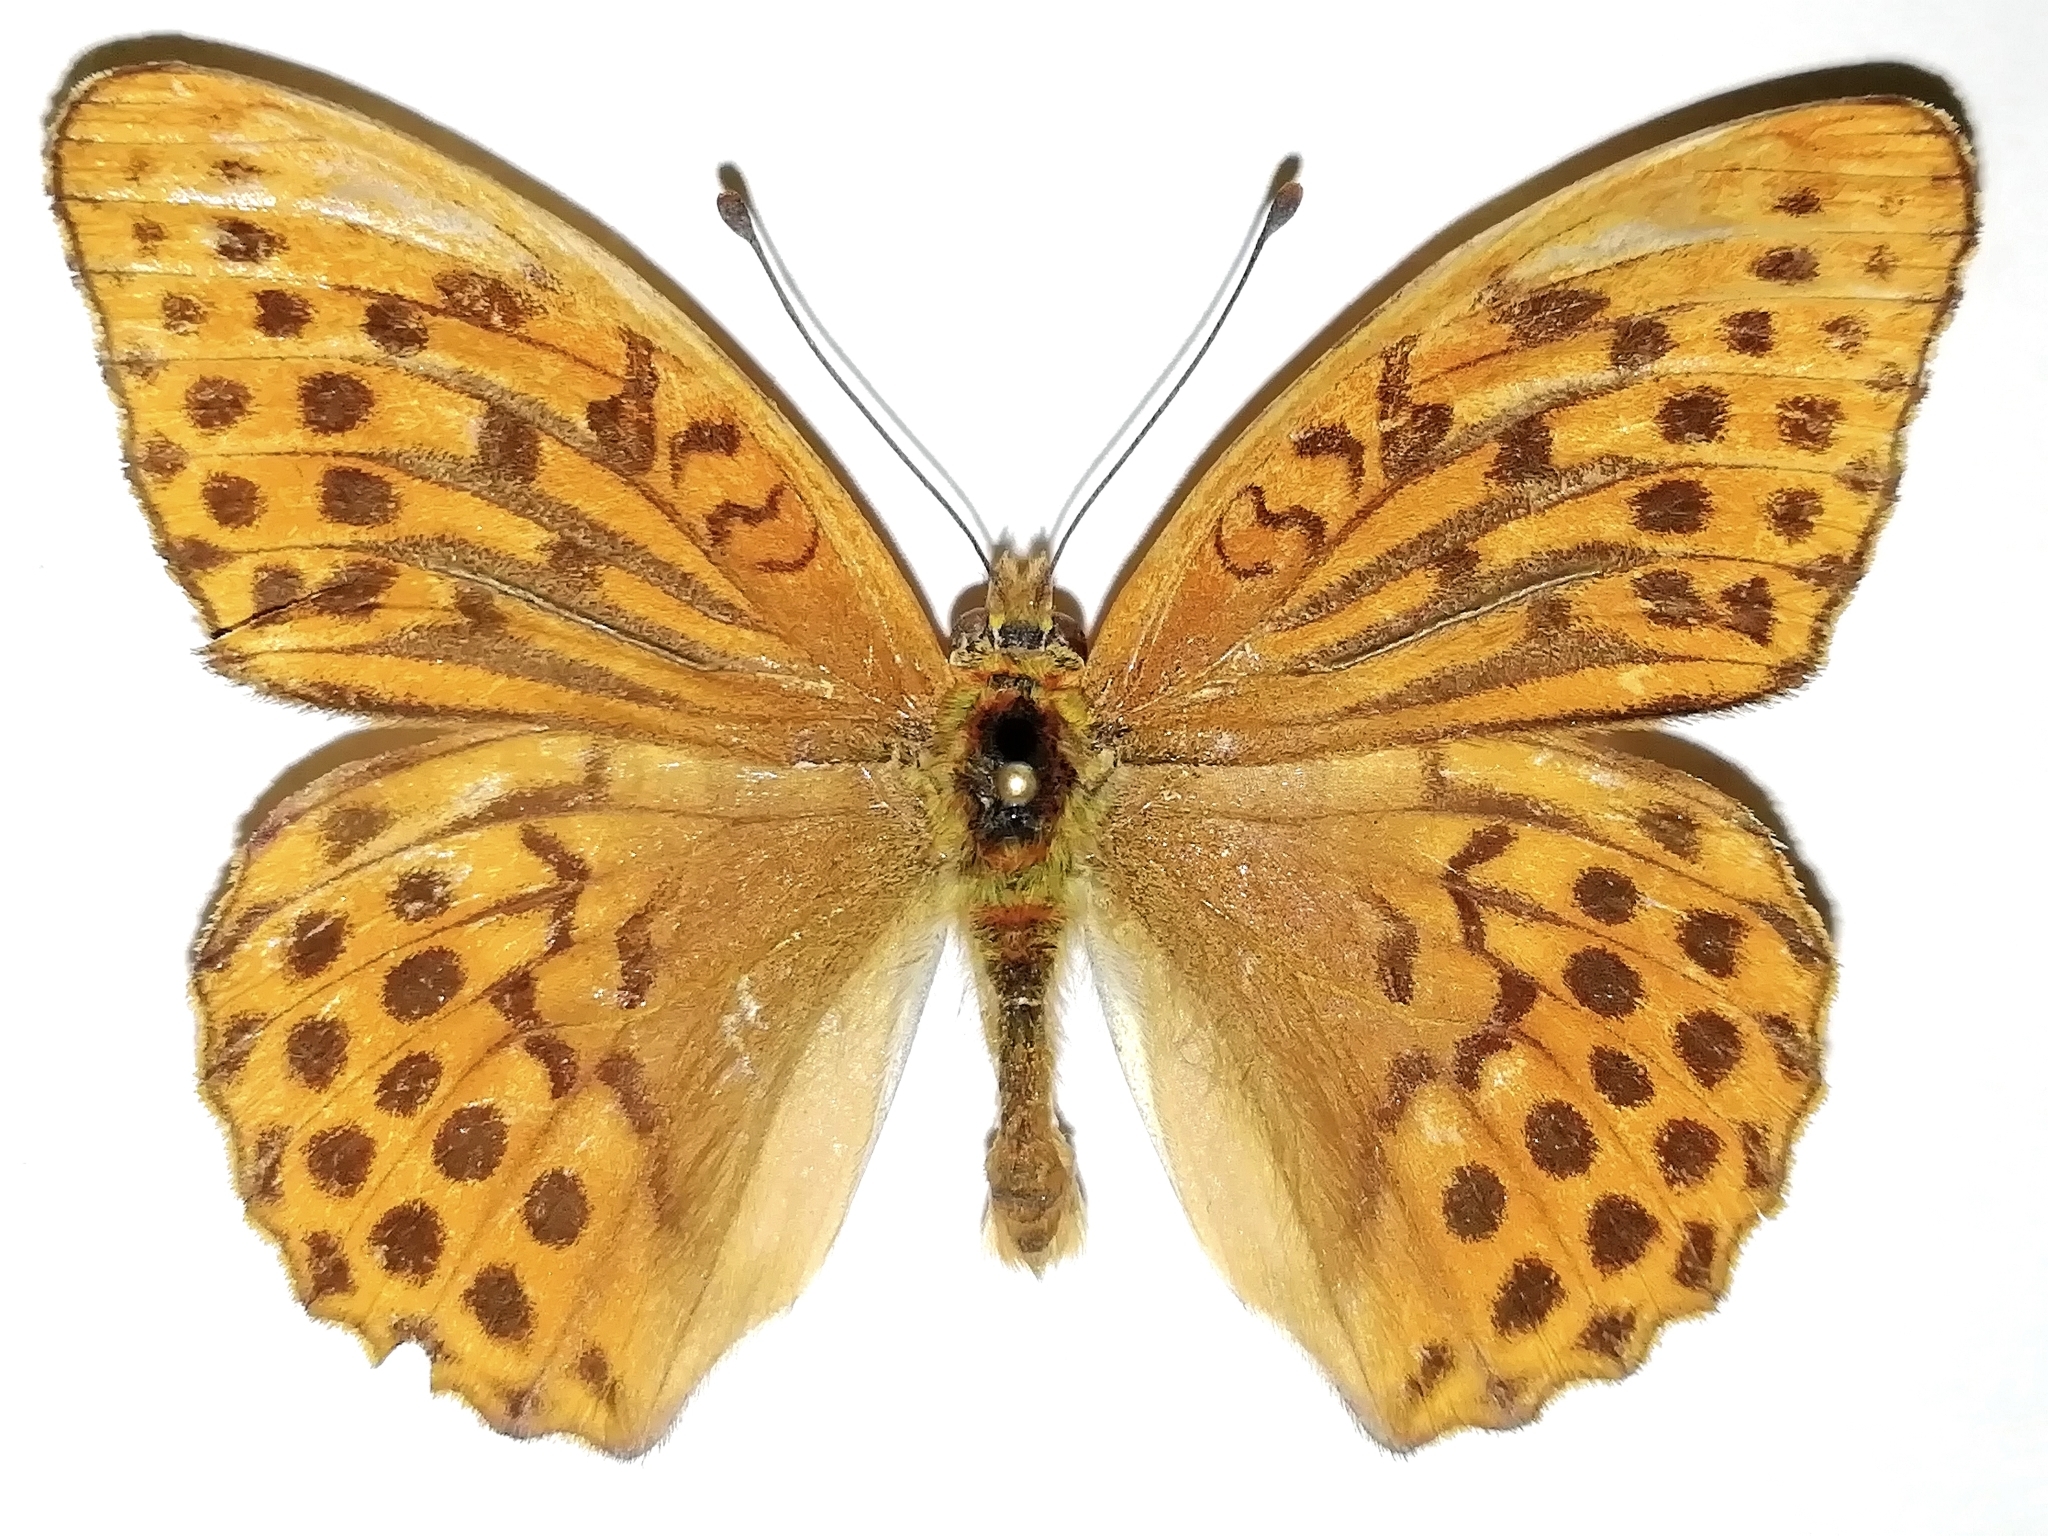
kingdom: Animalia
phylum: Arthropoda
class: Insecta
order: Lepidoptera
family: Nymphalidae
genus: Argynnis
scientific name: Argynnis paphia
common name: Silver-washed fritillary
